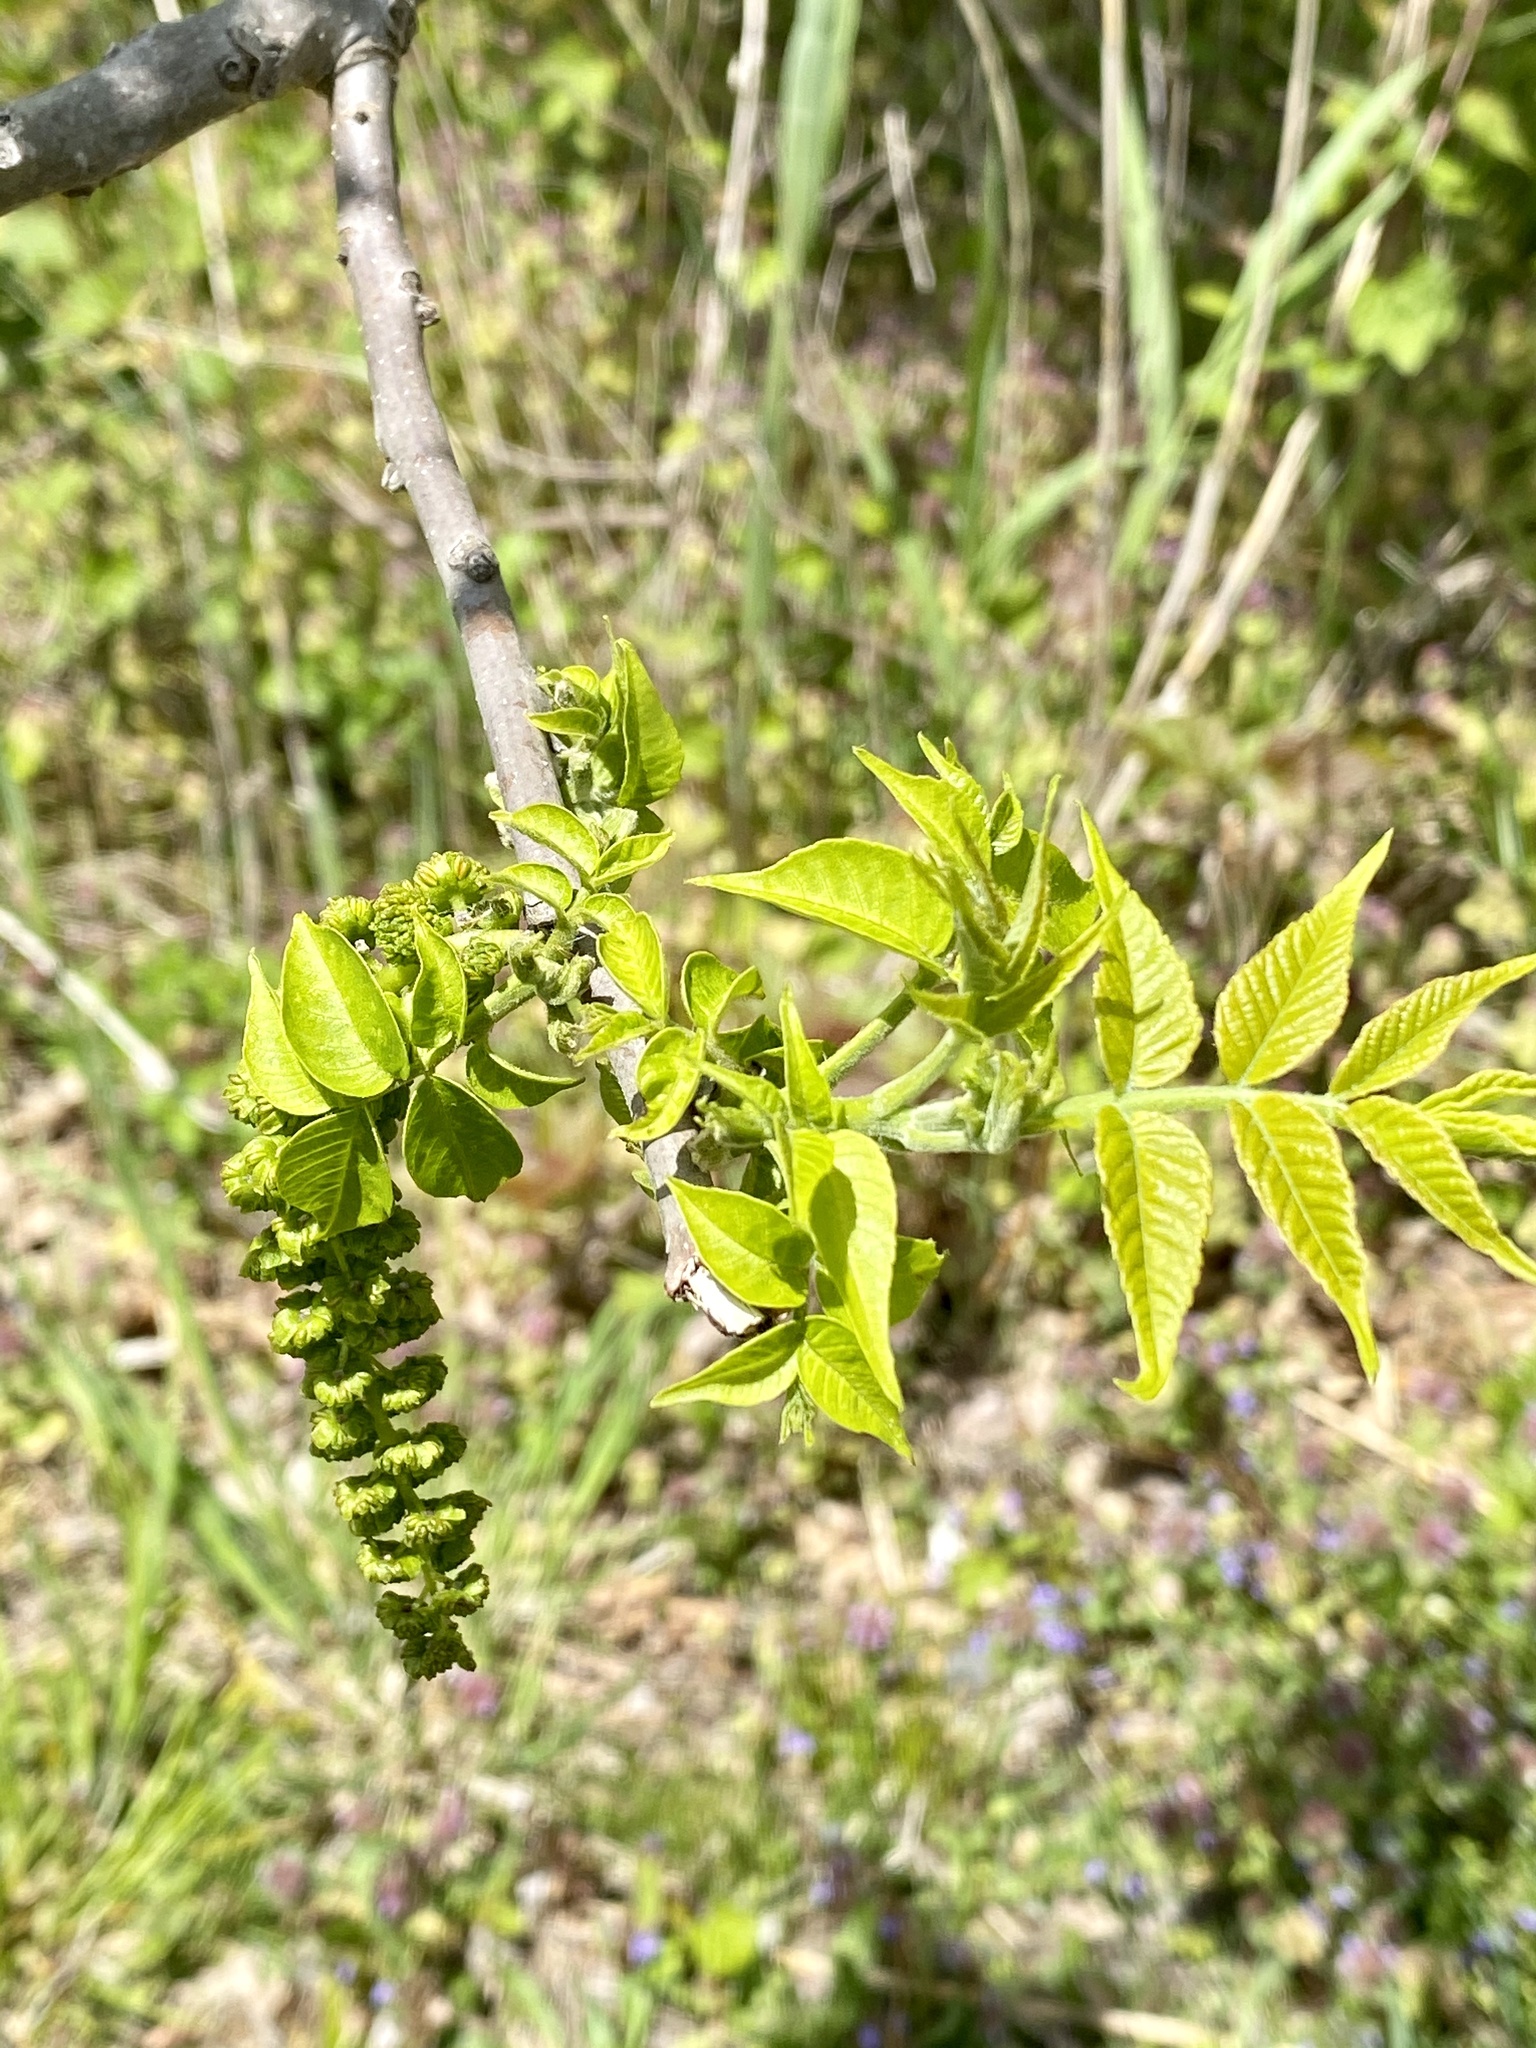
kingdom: Plantae
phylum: Tracheophyta
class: Magnoliopsida
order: Fagales
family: Juglandaceae
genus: Juglans
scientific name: Juglans nigra
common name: Black walnut
